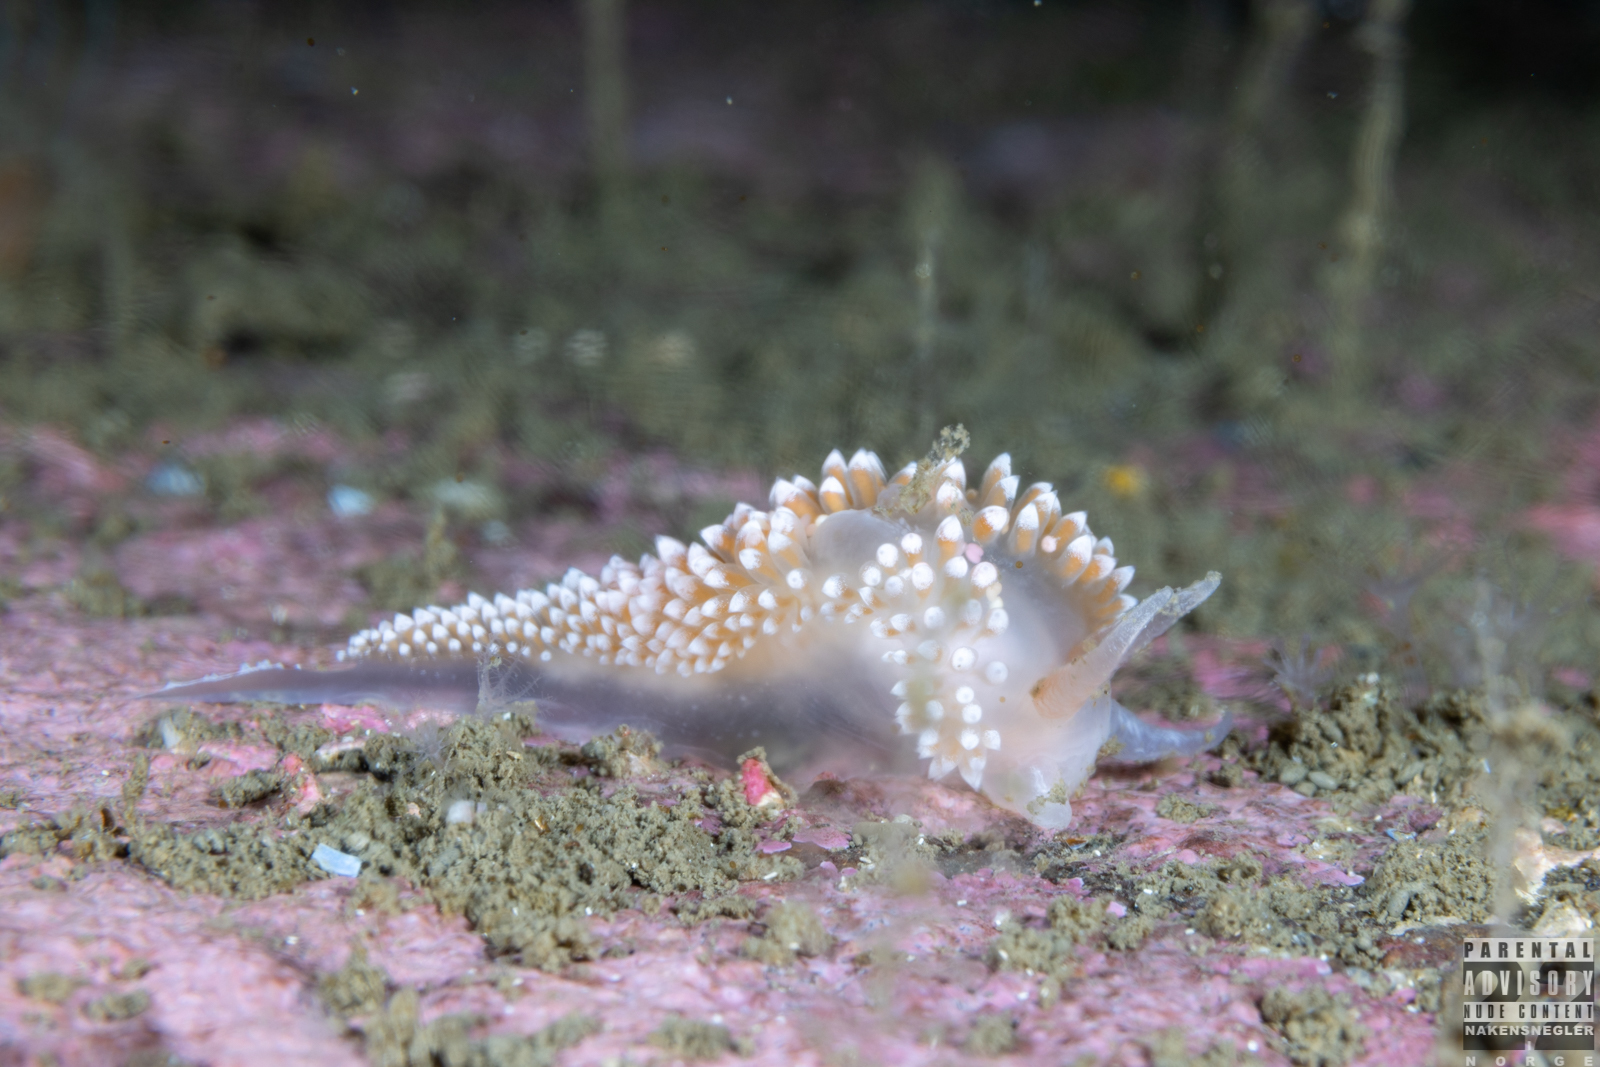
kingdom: Animalia
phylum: Mollusca
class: Gastropoda
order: Nudibranchia
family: Coryphellidae
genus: Coryphella
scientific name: Coryphella verrucosa
